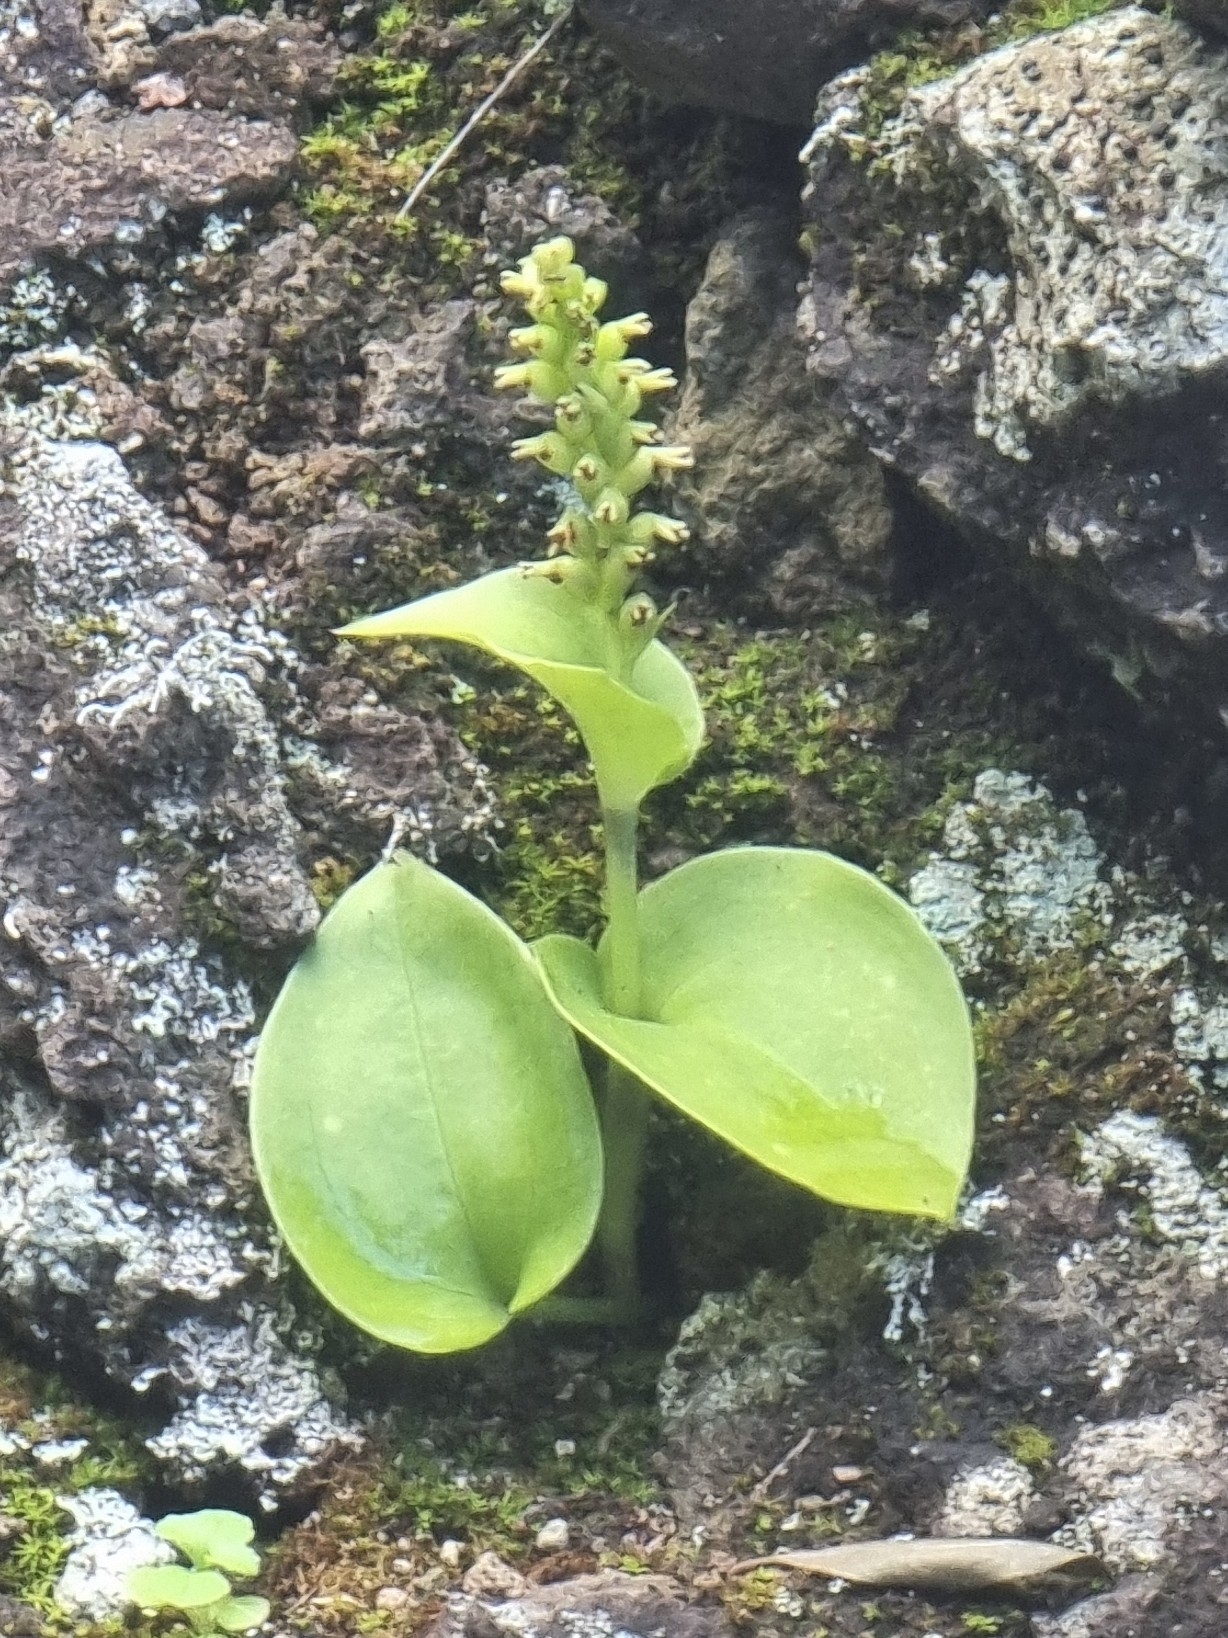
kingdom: Plantae
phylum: Tracheophyta
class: Liliopsida
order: Asparagales
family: Orchidaceae
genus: Gennaria
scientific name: Gennaria diphylla
